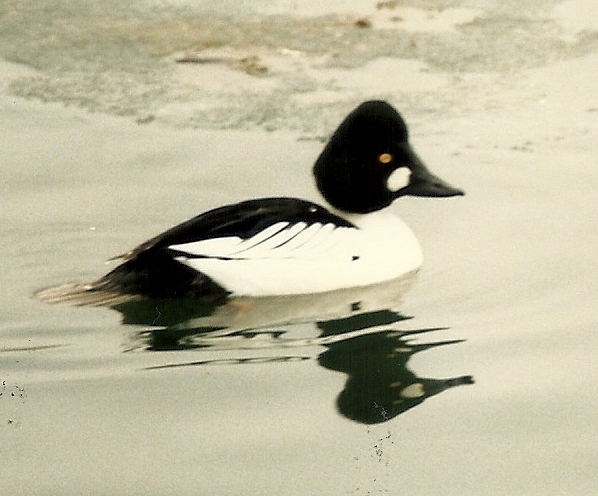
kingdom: Animalia
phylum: Chordata
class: Aves
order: Anseriformes
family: Anatidae
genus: Bucephala
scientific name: Bucephala clangula
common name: Common goldeneye
